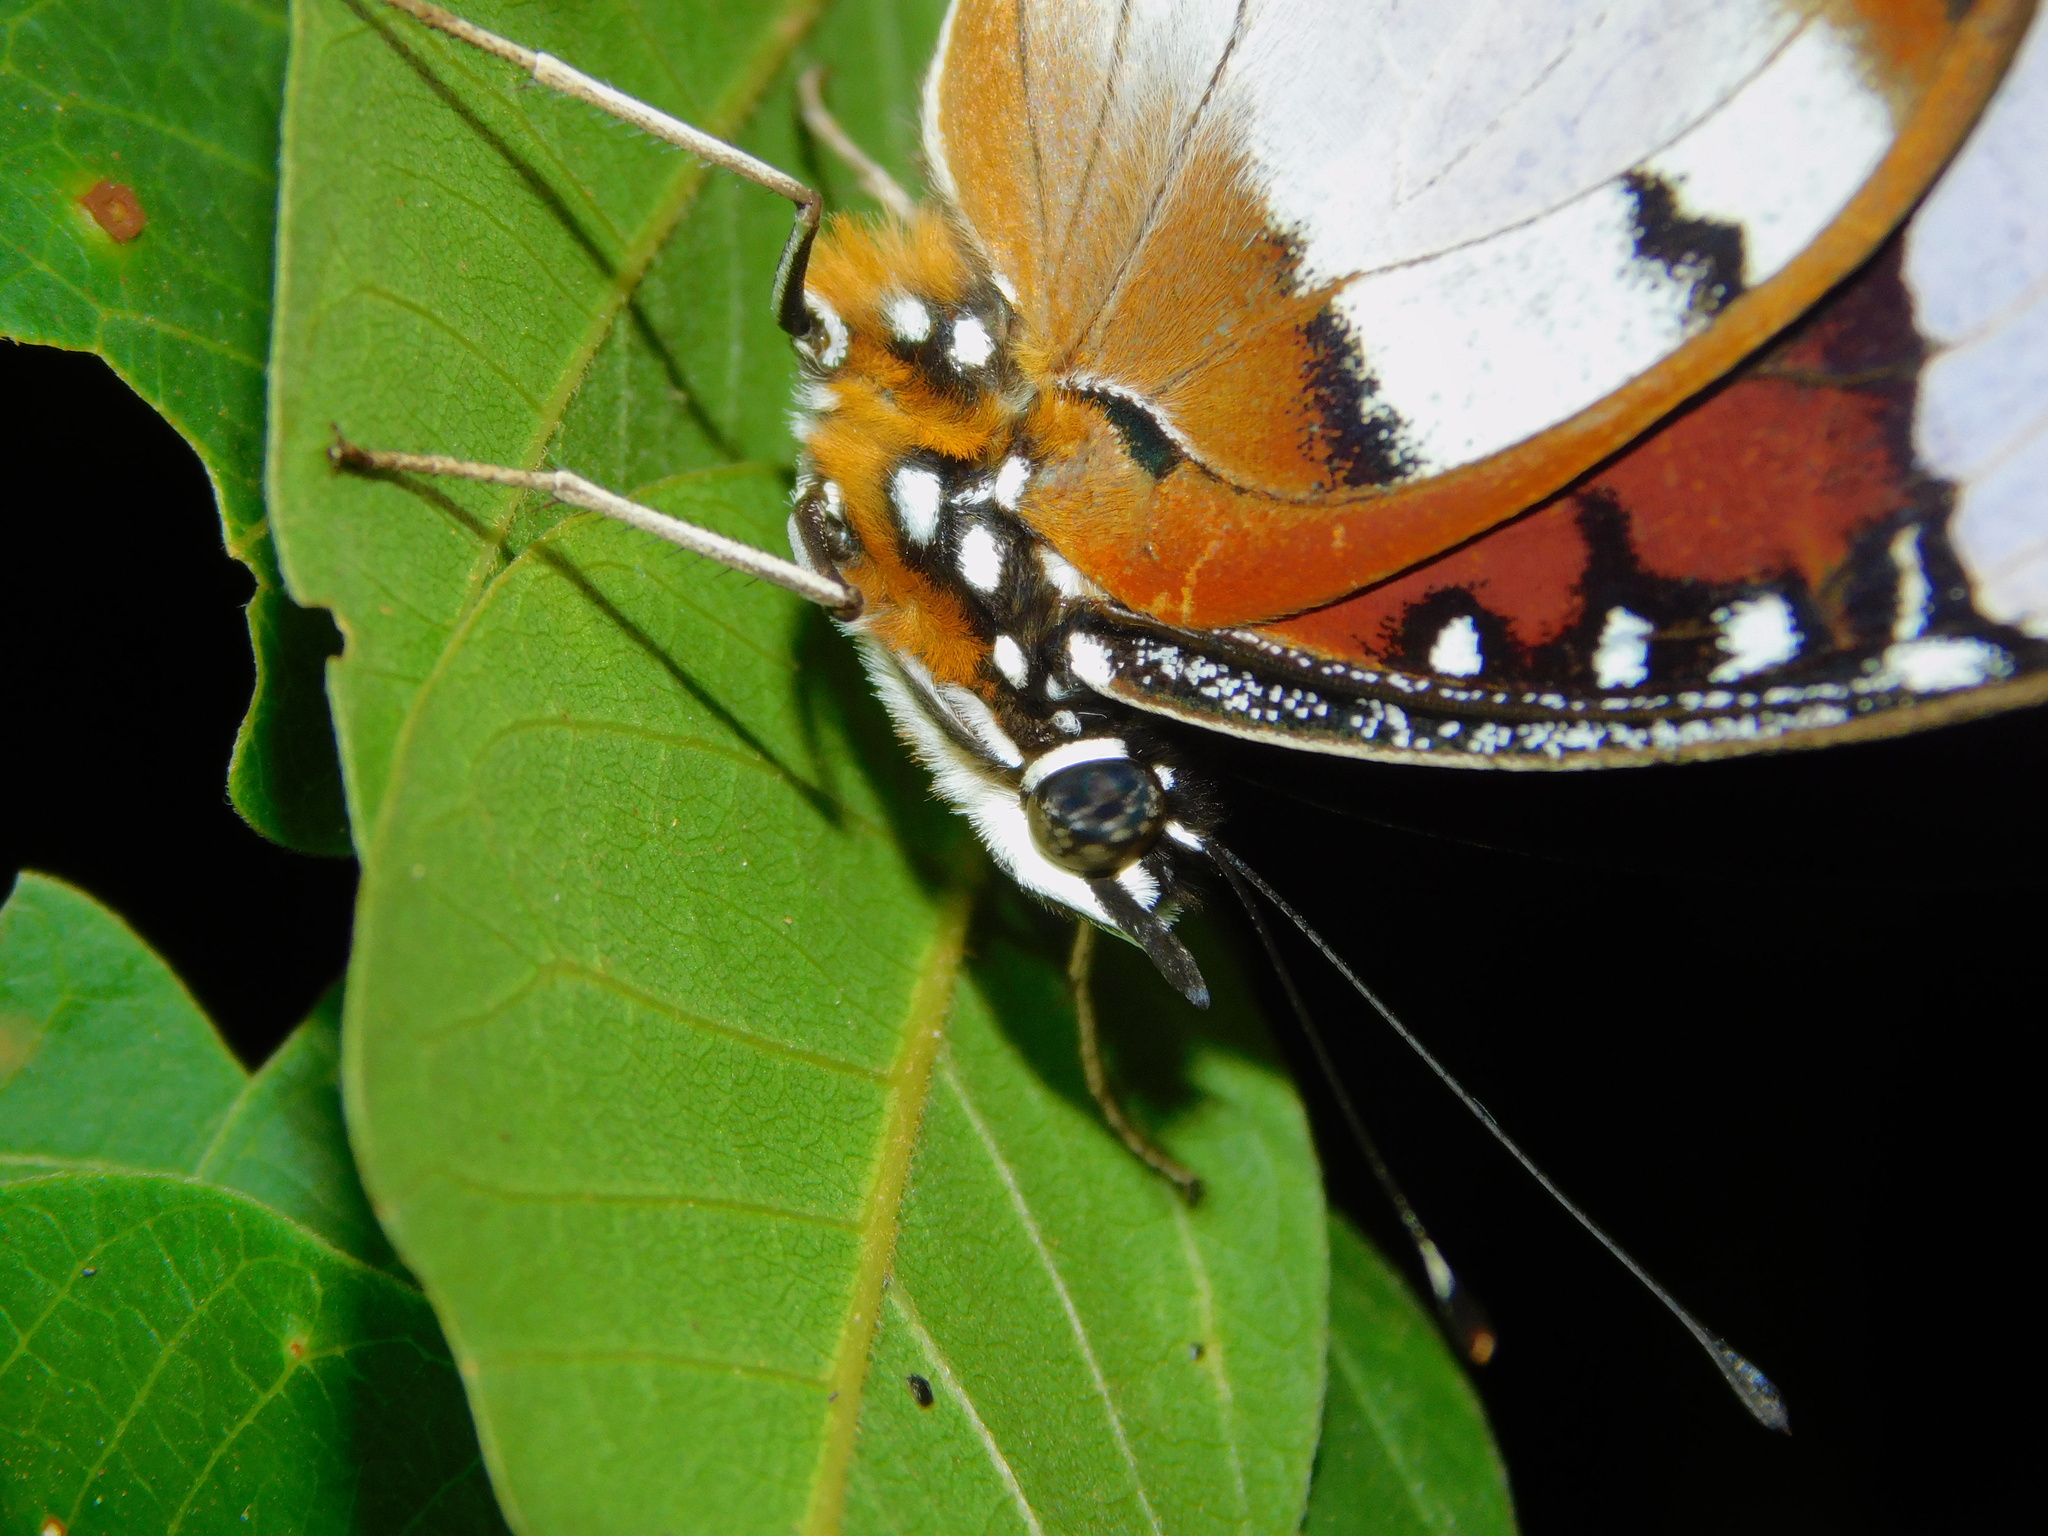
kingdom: Animalia
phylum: Arthropoda
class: Insecta
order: Lepidoptera
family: Nymphalidae
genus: Hypolimnas
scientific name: Hypolimnas misippus
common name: False plain tiger
